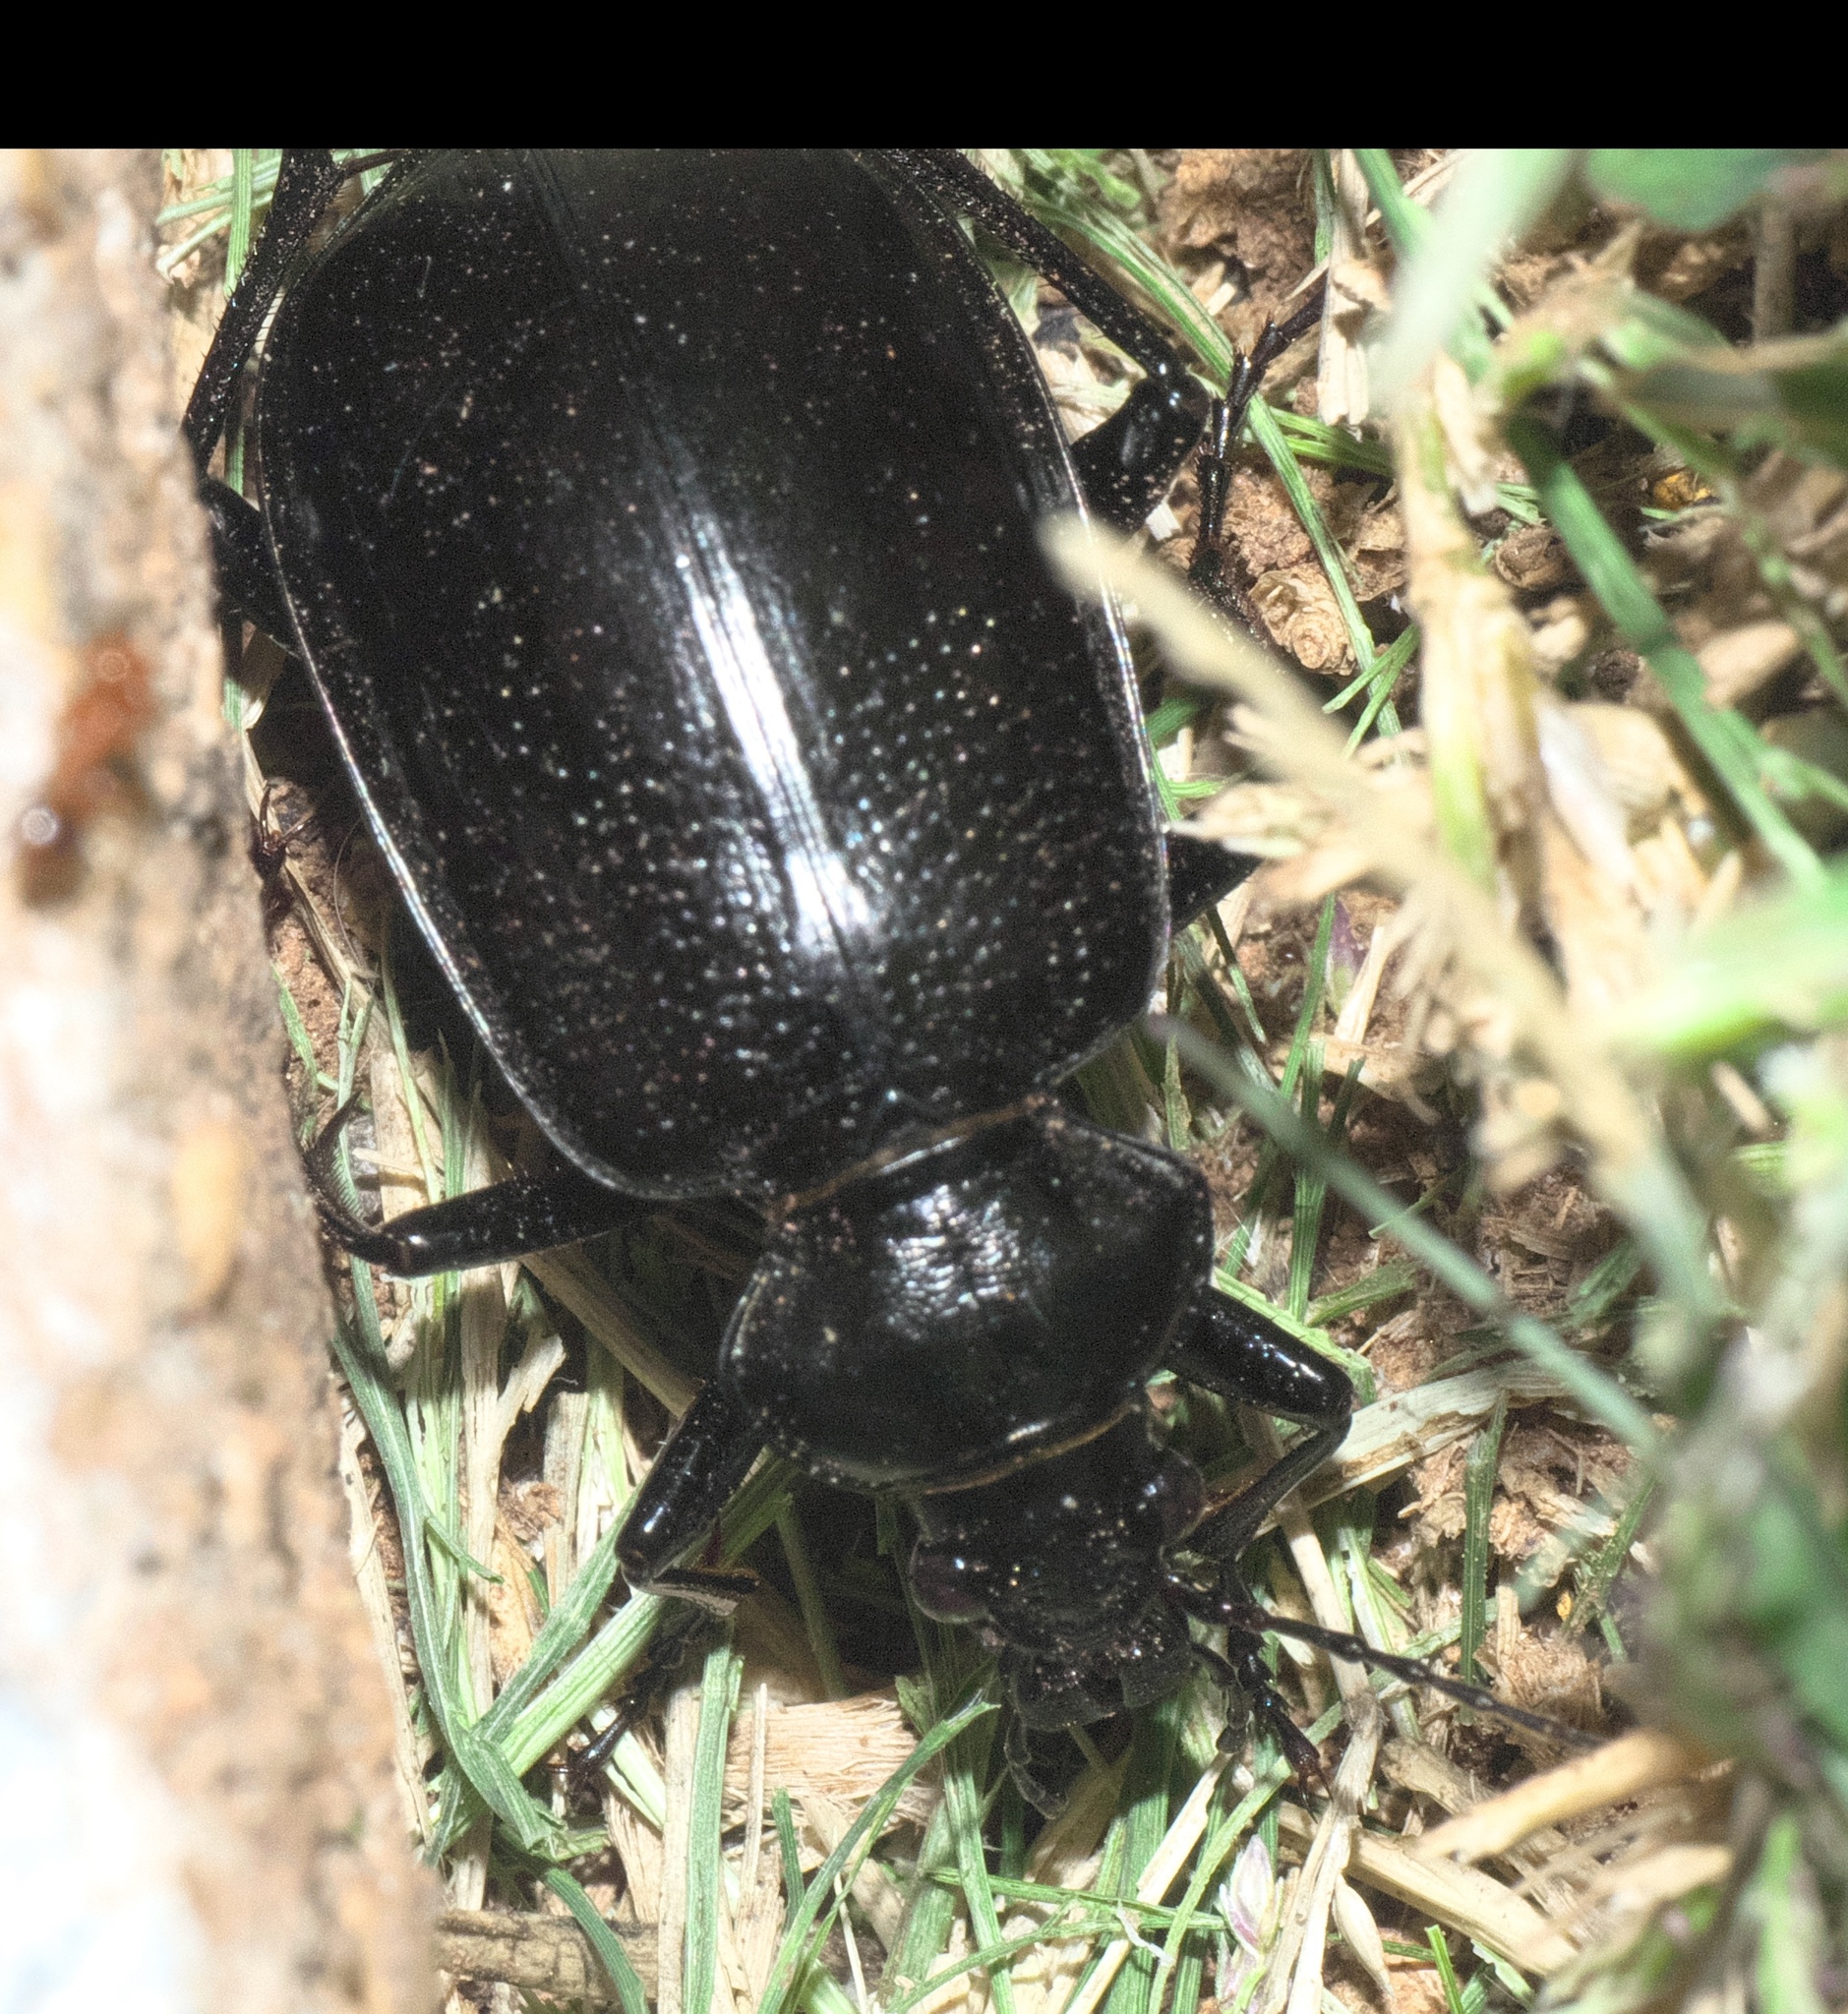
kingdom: Animalia
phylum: Arthropoda
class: Insecta
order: Coleoptera
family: Carabidae
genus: Calosoma
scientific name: Calosoma marginale
